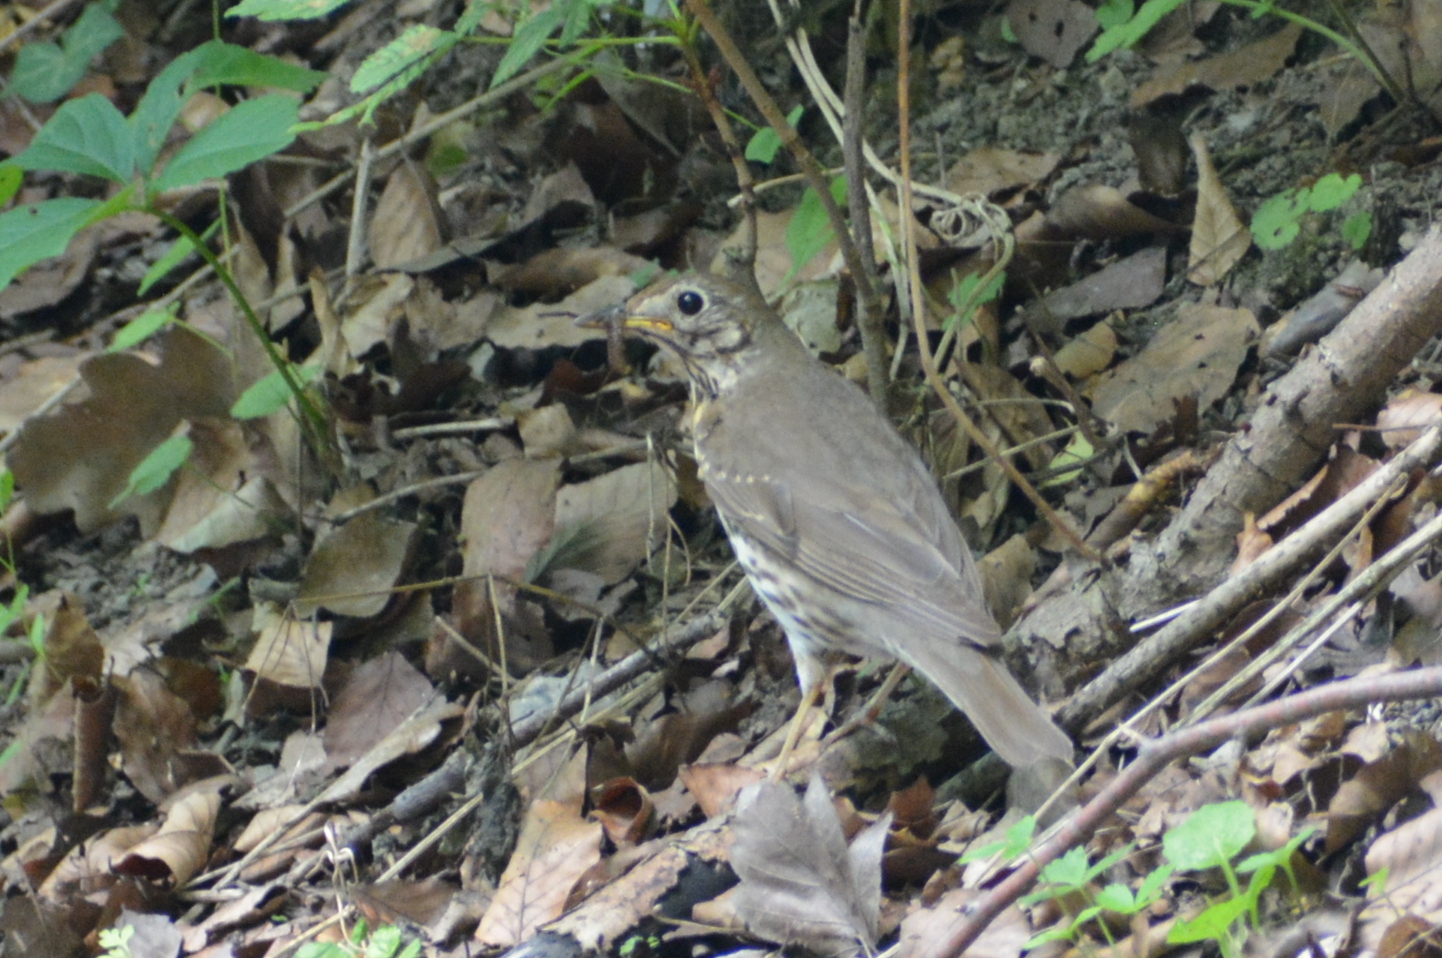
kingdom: Animalia
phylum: Chordata
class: Aves
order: Passeriformes
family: Turdidae
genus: Turdus
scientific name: Turdus philomelos
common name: Song thrush
